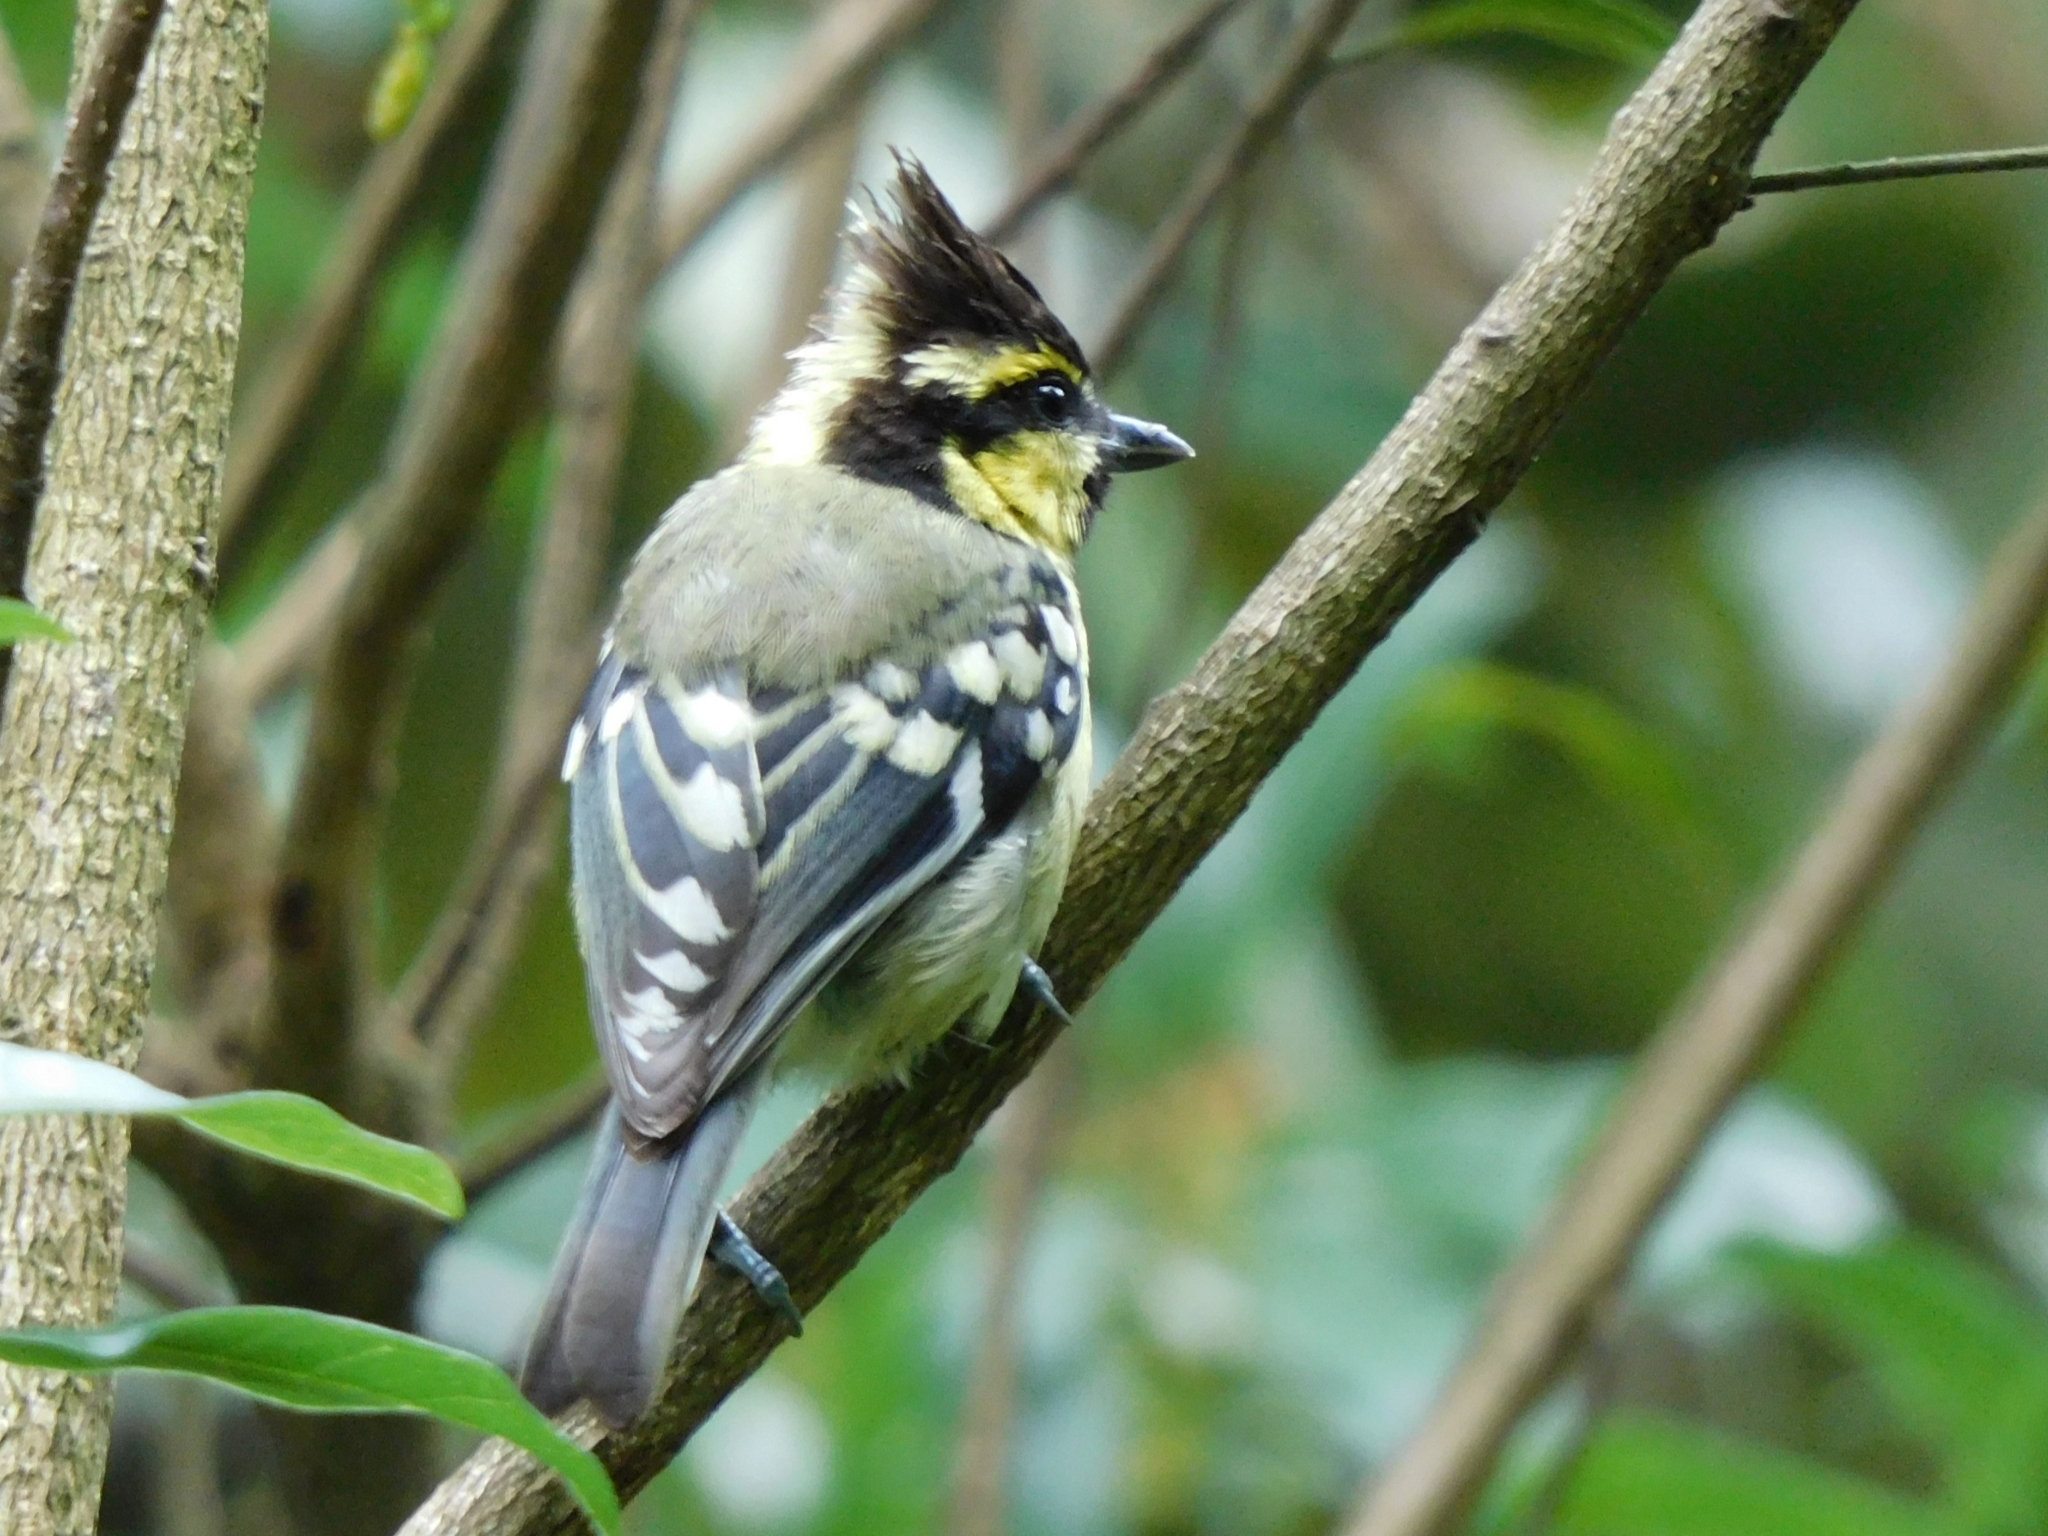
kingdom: Animalia
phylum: Chordata
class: Aves
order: Passeriformes
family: Paridae
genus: Parus
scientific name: Parus xanthogenys
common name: Black-lored tit
